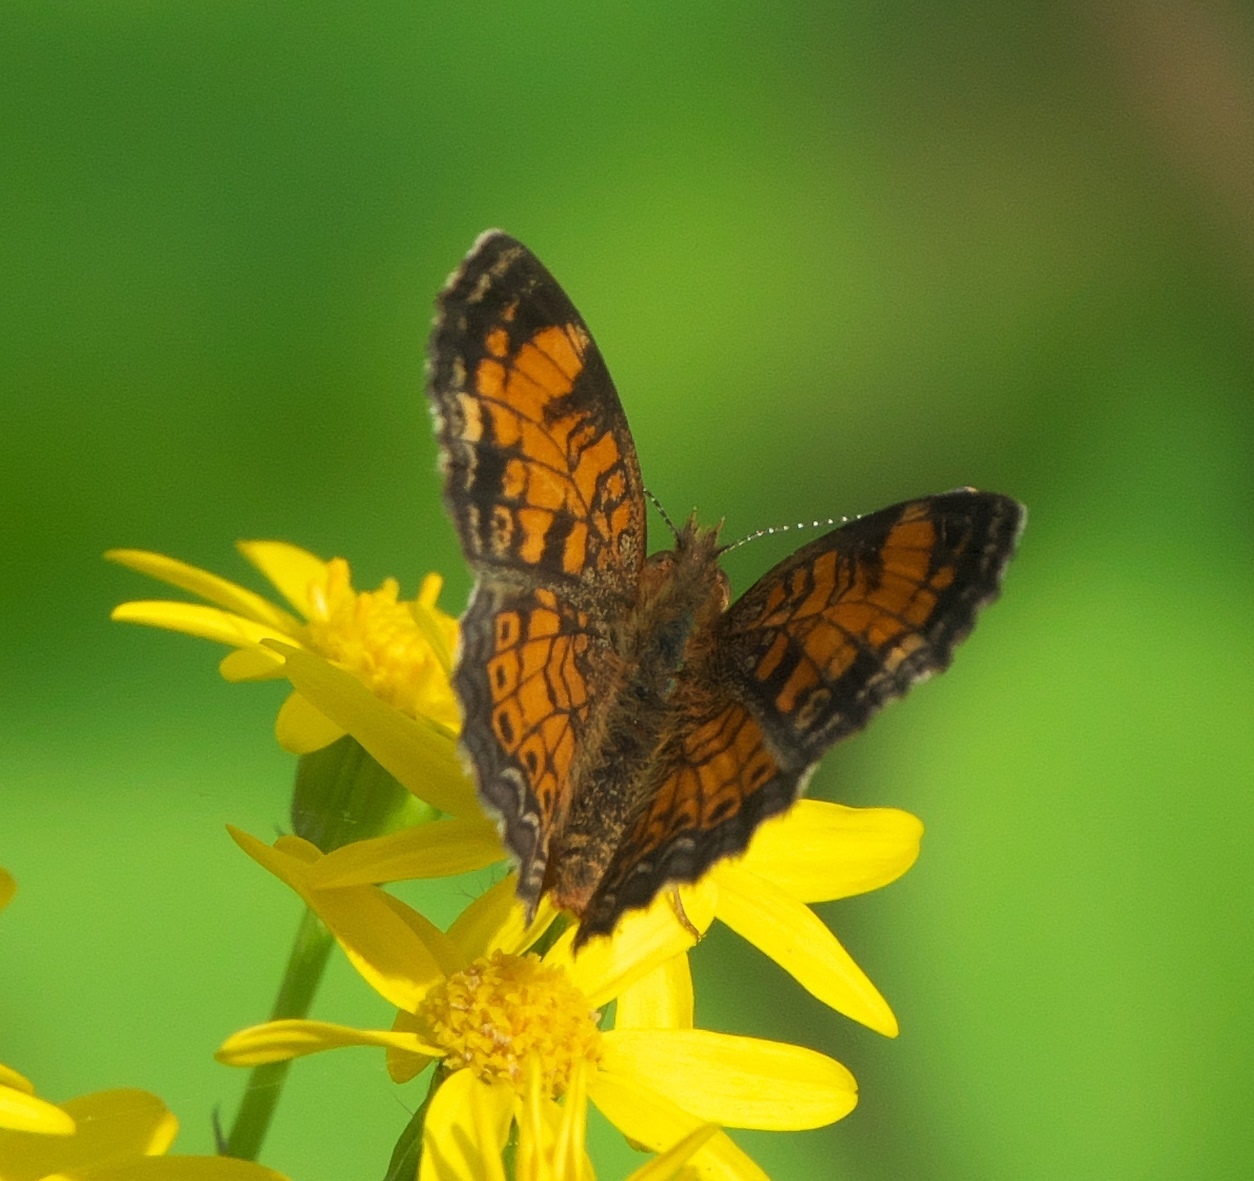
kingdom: Animalia
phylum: Arthropoda
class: Insecta
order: Lepidoptera
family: Nymphalidae
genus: Phyciodes
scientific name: Phyciodes tharos
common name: Pearl crescent
